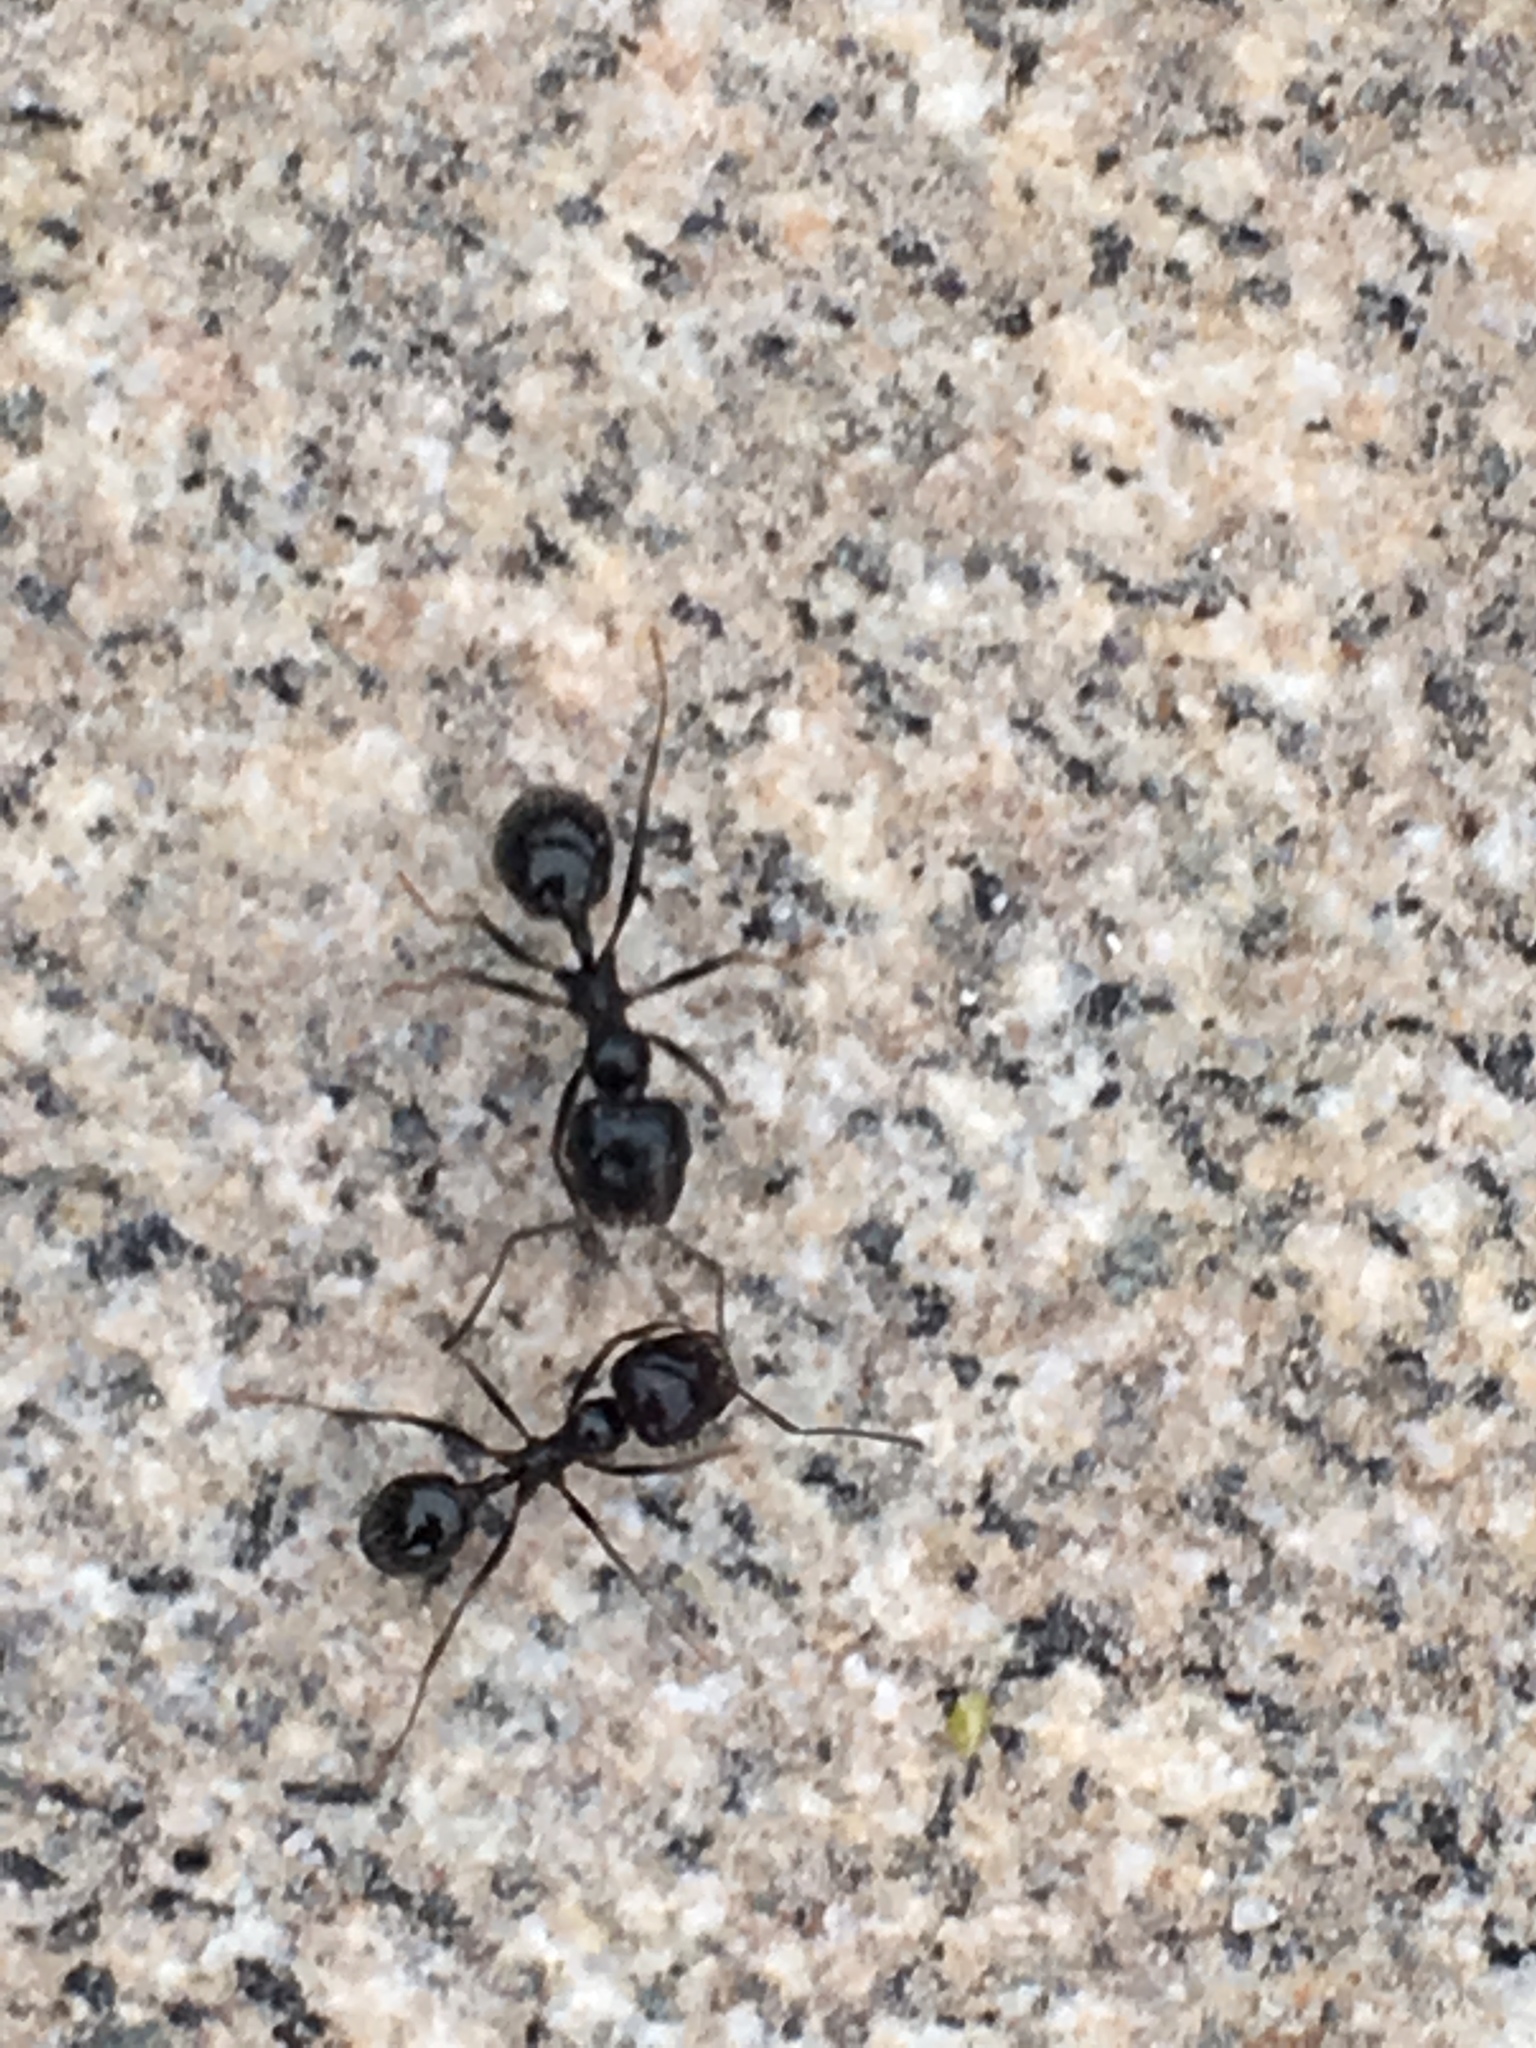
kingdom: Animalia
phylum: Arthropoda
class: Insecta
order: Hymenoptera
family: Formicidae
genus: Messor
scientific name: Messor pergandei
